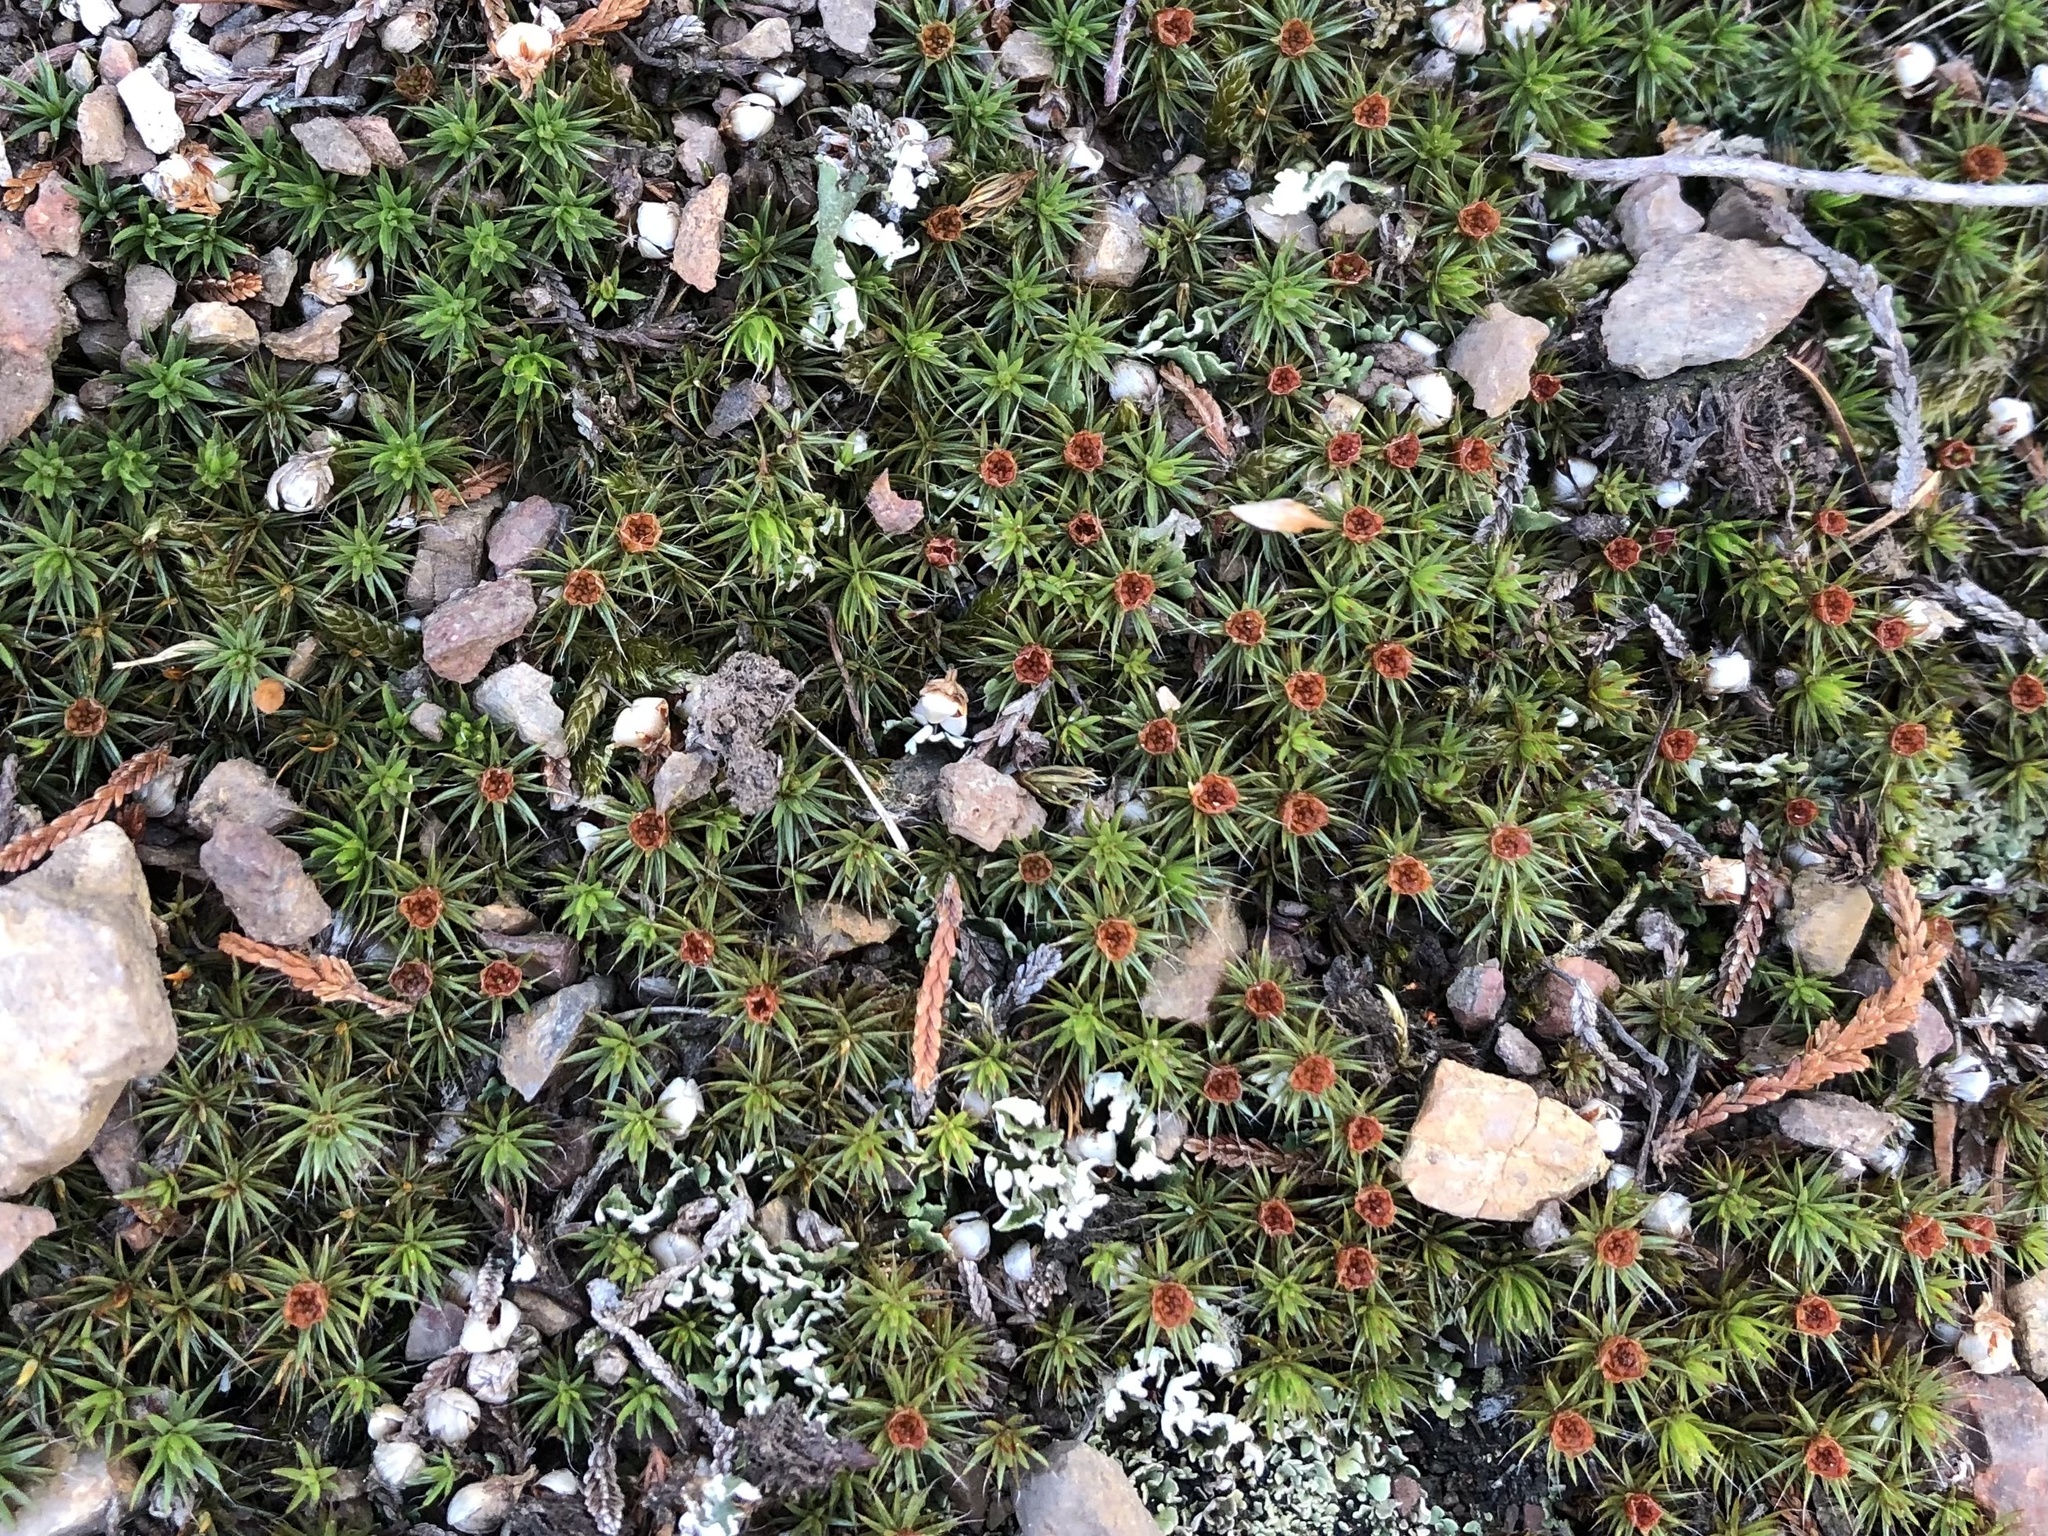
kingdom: Plantae
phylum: Bryophyta
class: Polytrichopsida
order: Polytrichales
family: Polytrichaceae
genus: Polytrichum
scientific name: Polytrichum piliferum
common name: Bristly haircap
